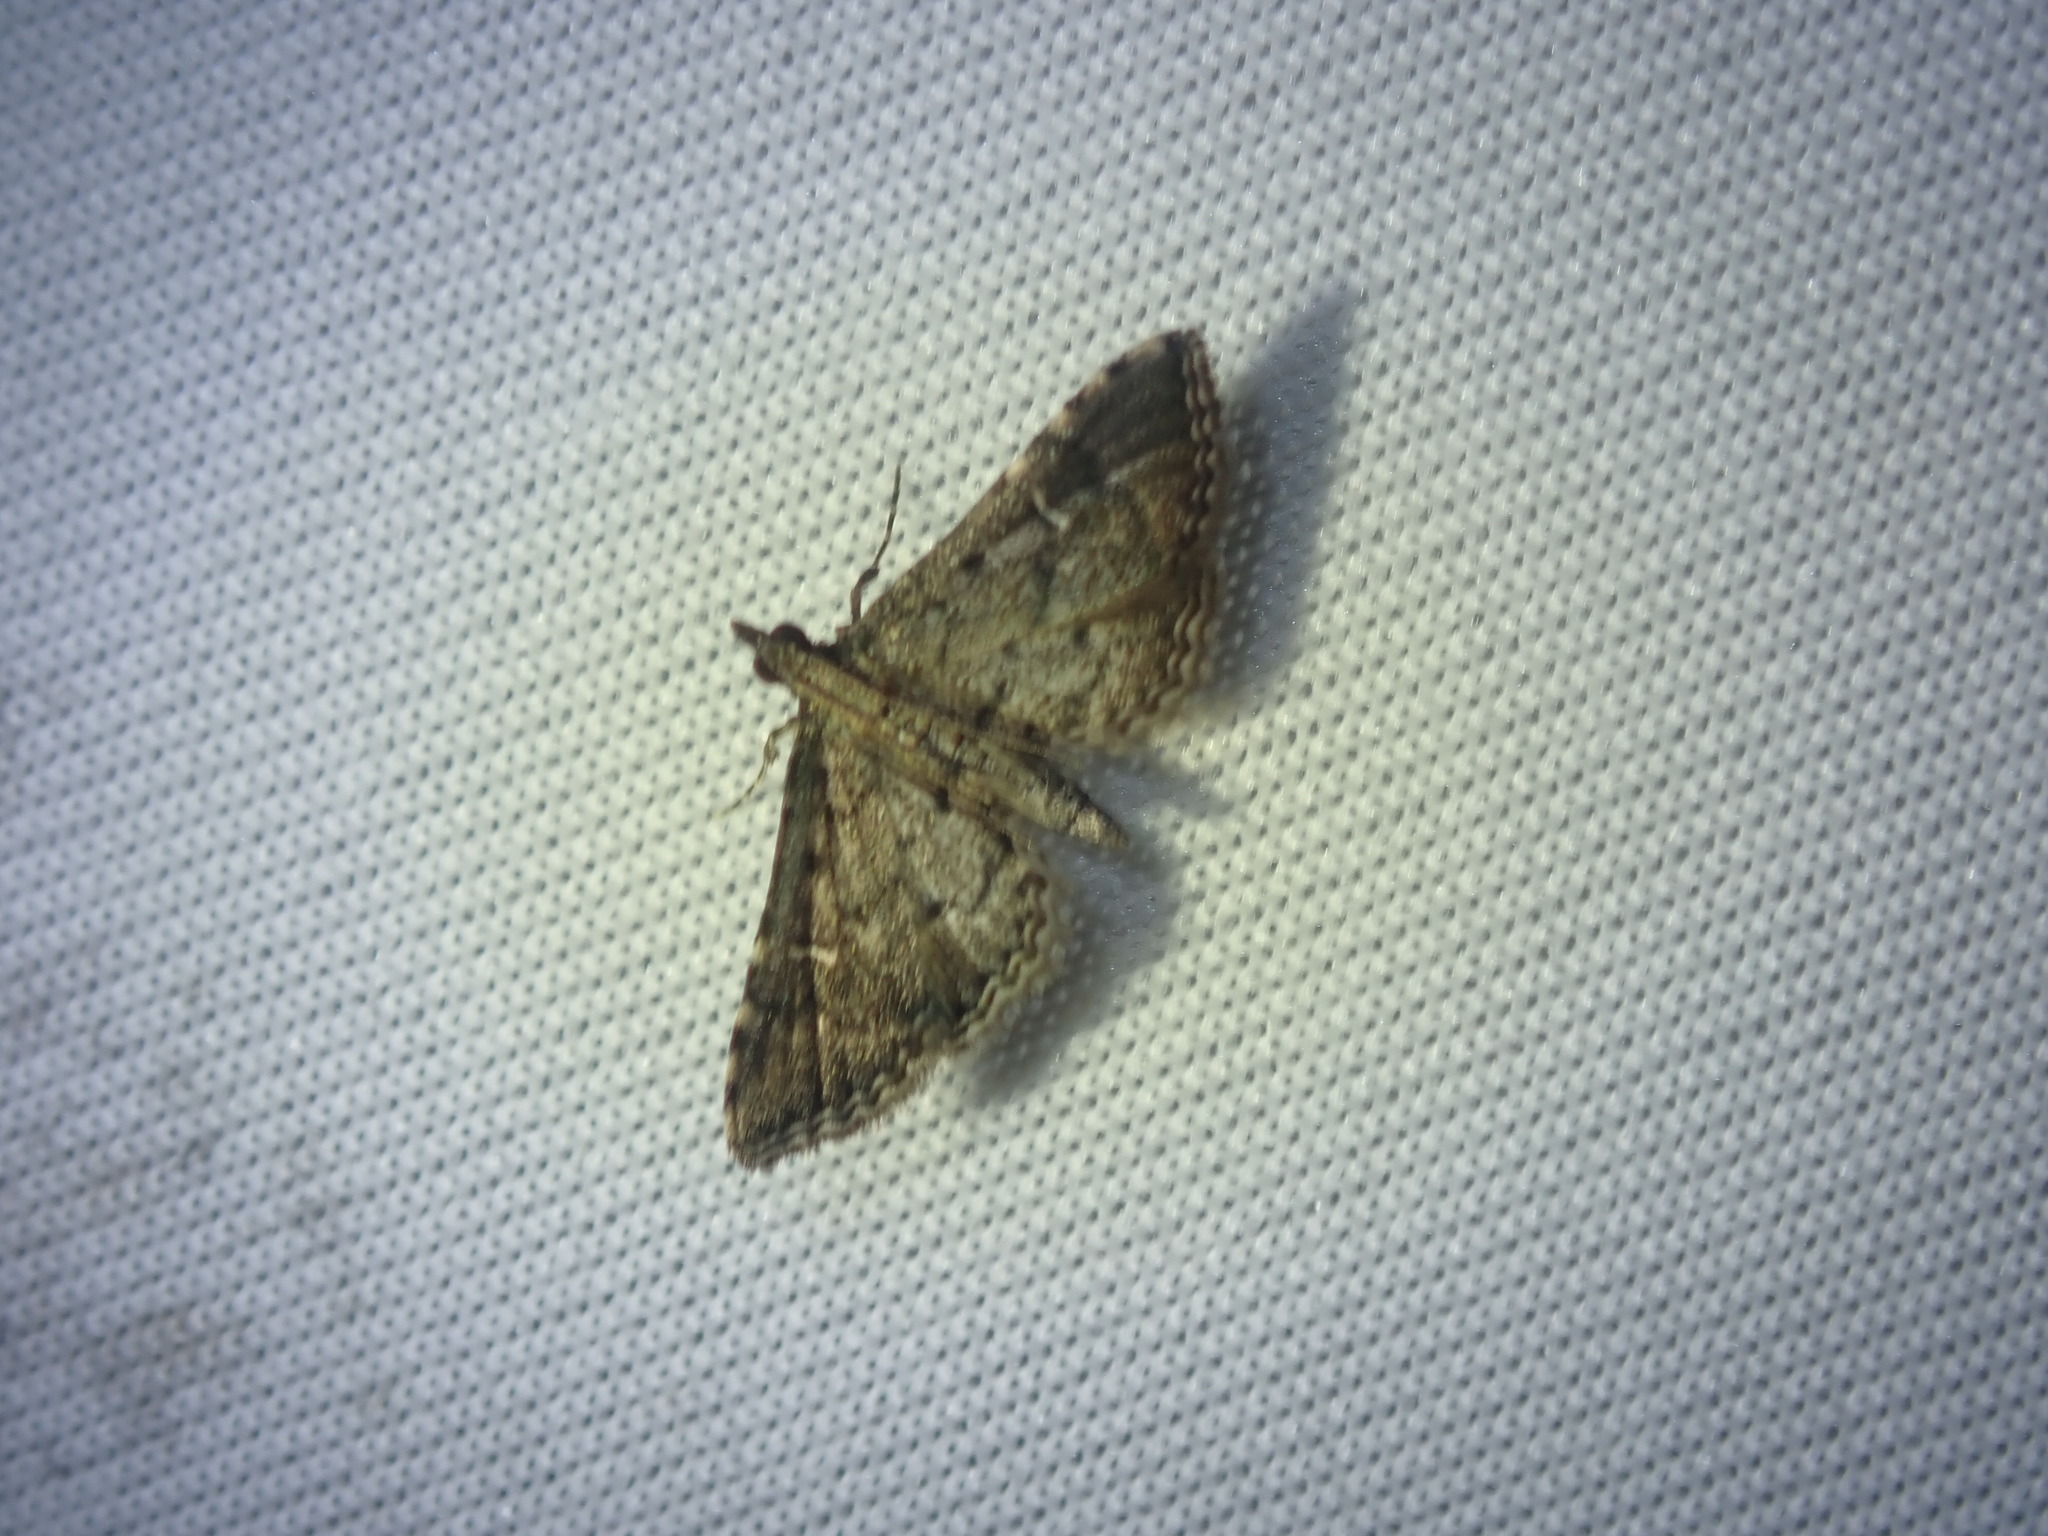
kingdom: Animalia
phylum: Arthropoda
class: Insecta
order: Lepidoptera
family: Crambidae
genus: Metasia
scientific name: Metasia capnochroa
